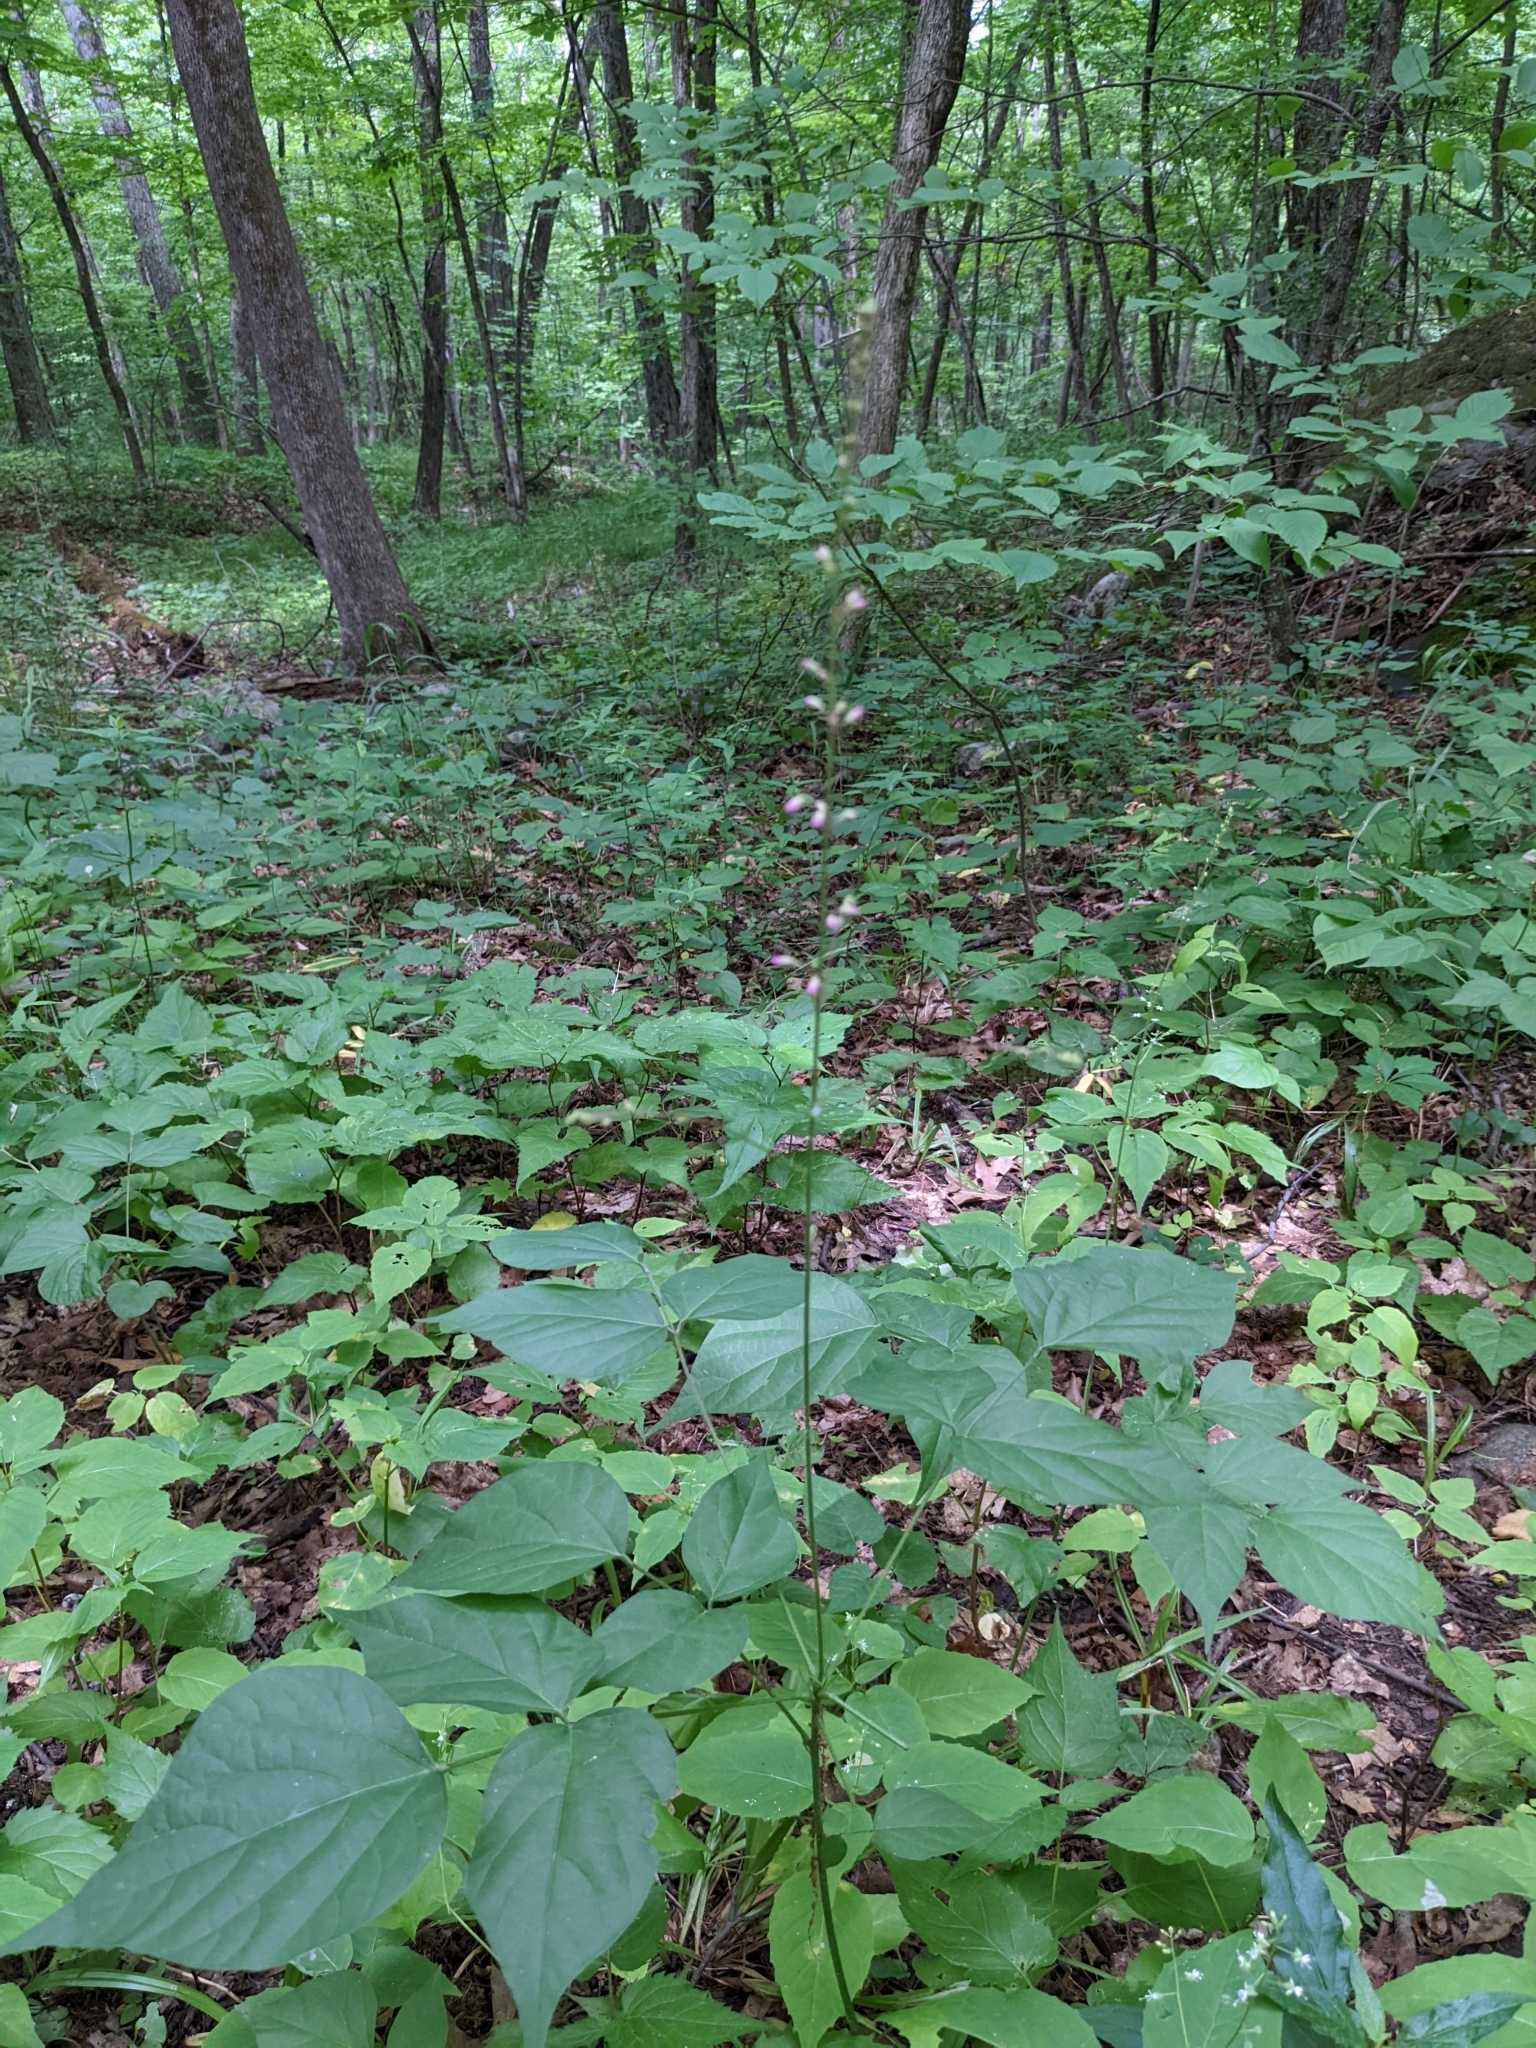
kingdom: Plantae
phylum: Tracheophyta
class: Magnoliopsida
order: Fabales
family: Fabaceae
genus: Hylodesmum
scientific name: Hylodesmum glutinosum
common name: Clustered-leaved tick-trefoil
